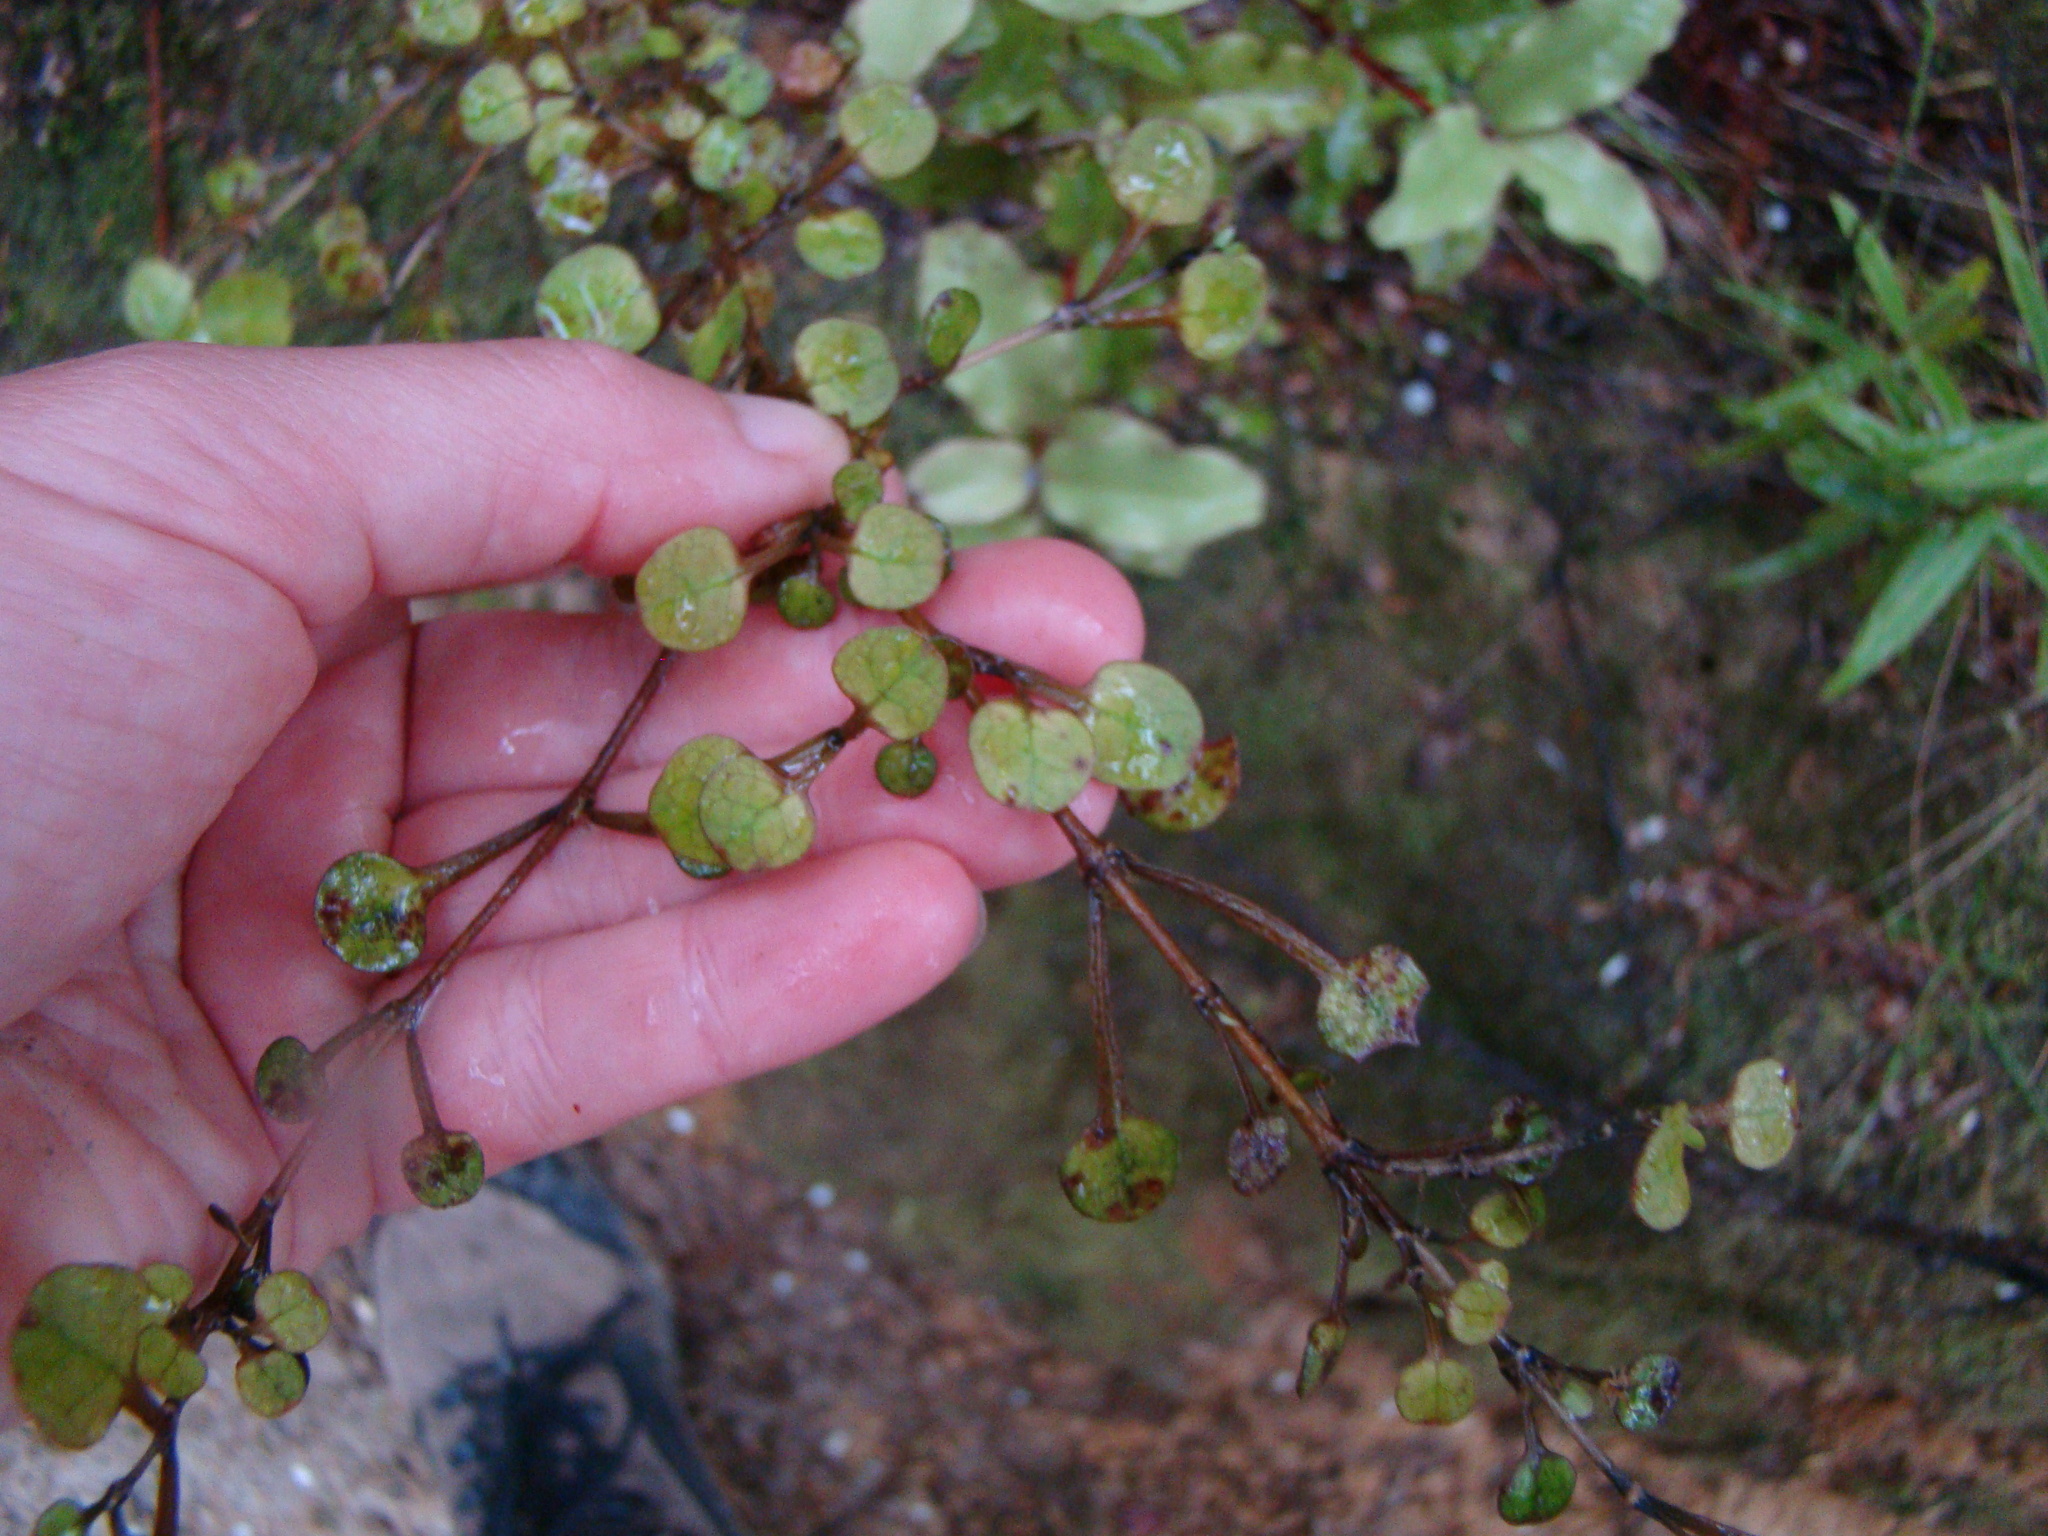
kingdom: Plantae
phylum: Tracheophyta
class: Magnoliopsida
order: Gentianales
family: Rubiaceae
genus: Coprosma
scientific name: Coprosma spathulata
